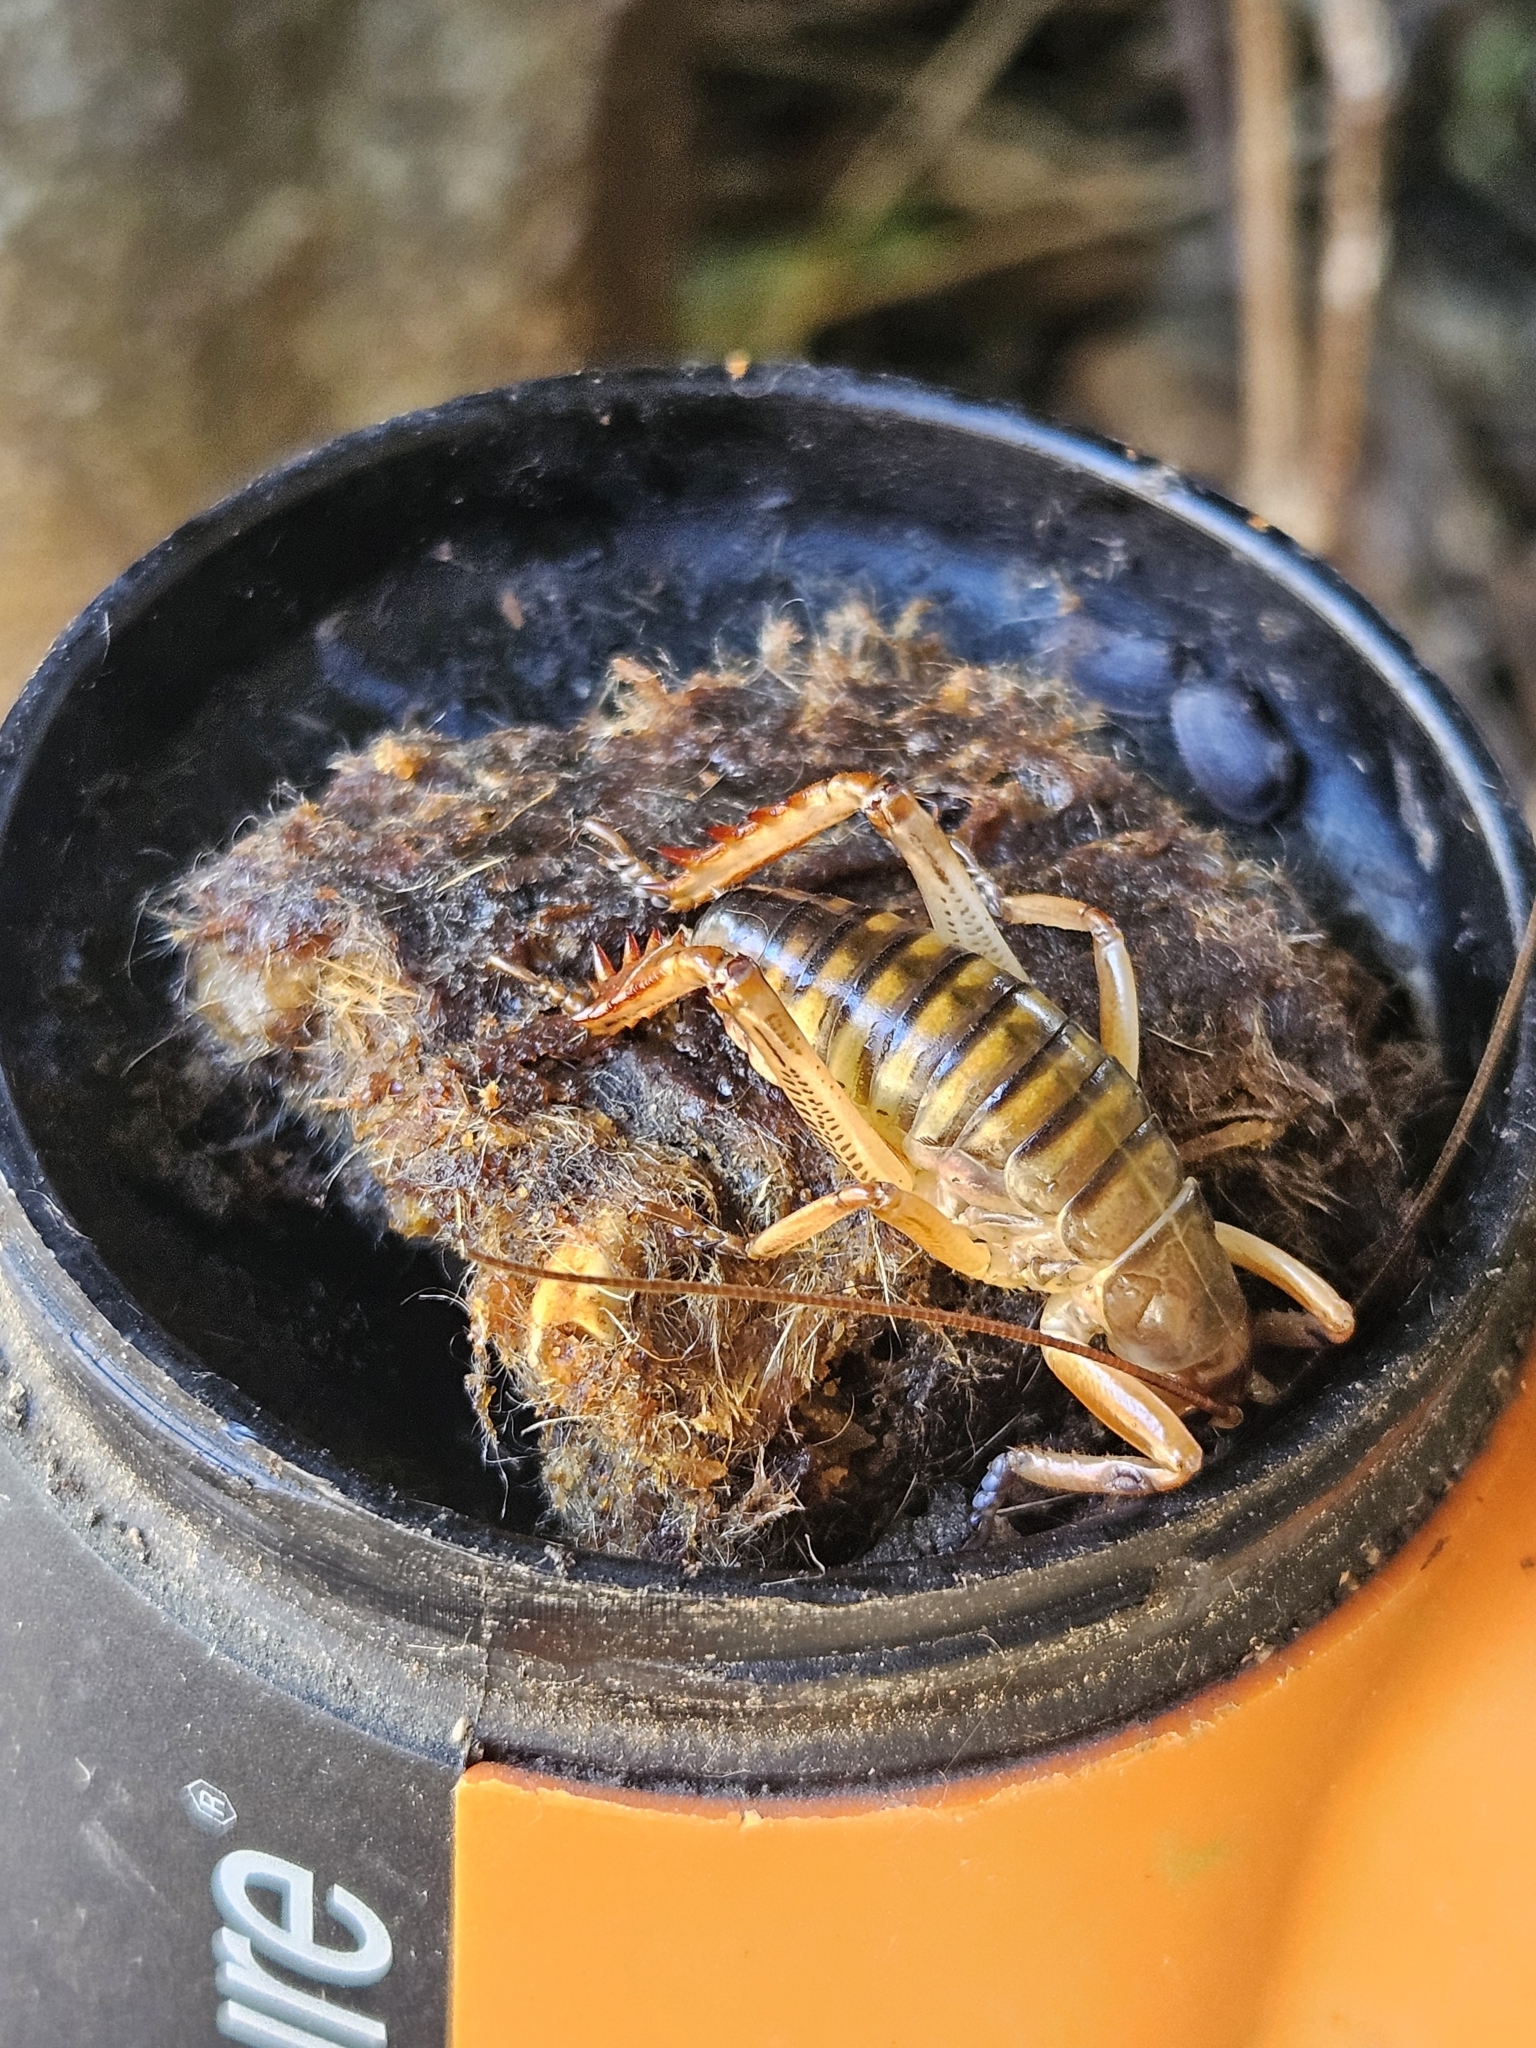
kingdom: Animalia
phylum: Arthropoda
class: Insecta
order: Orthoptera
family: Anostostomatidae
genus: Hemideina
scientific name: Hemideina crassidens
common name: Wellington tree weta
